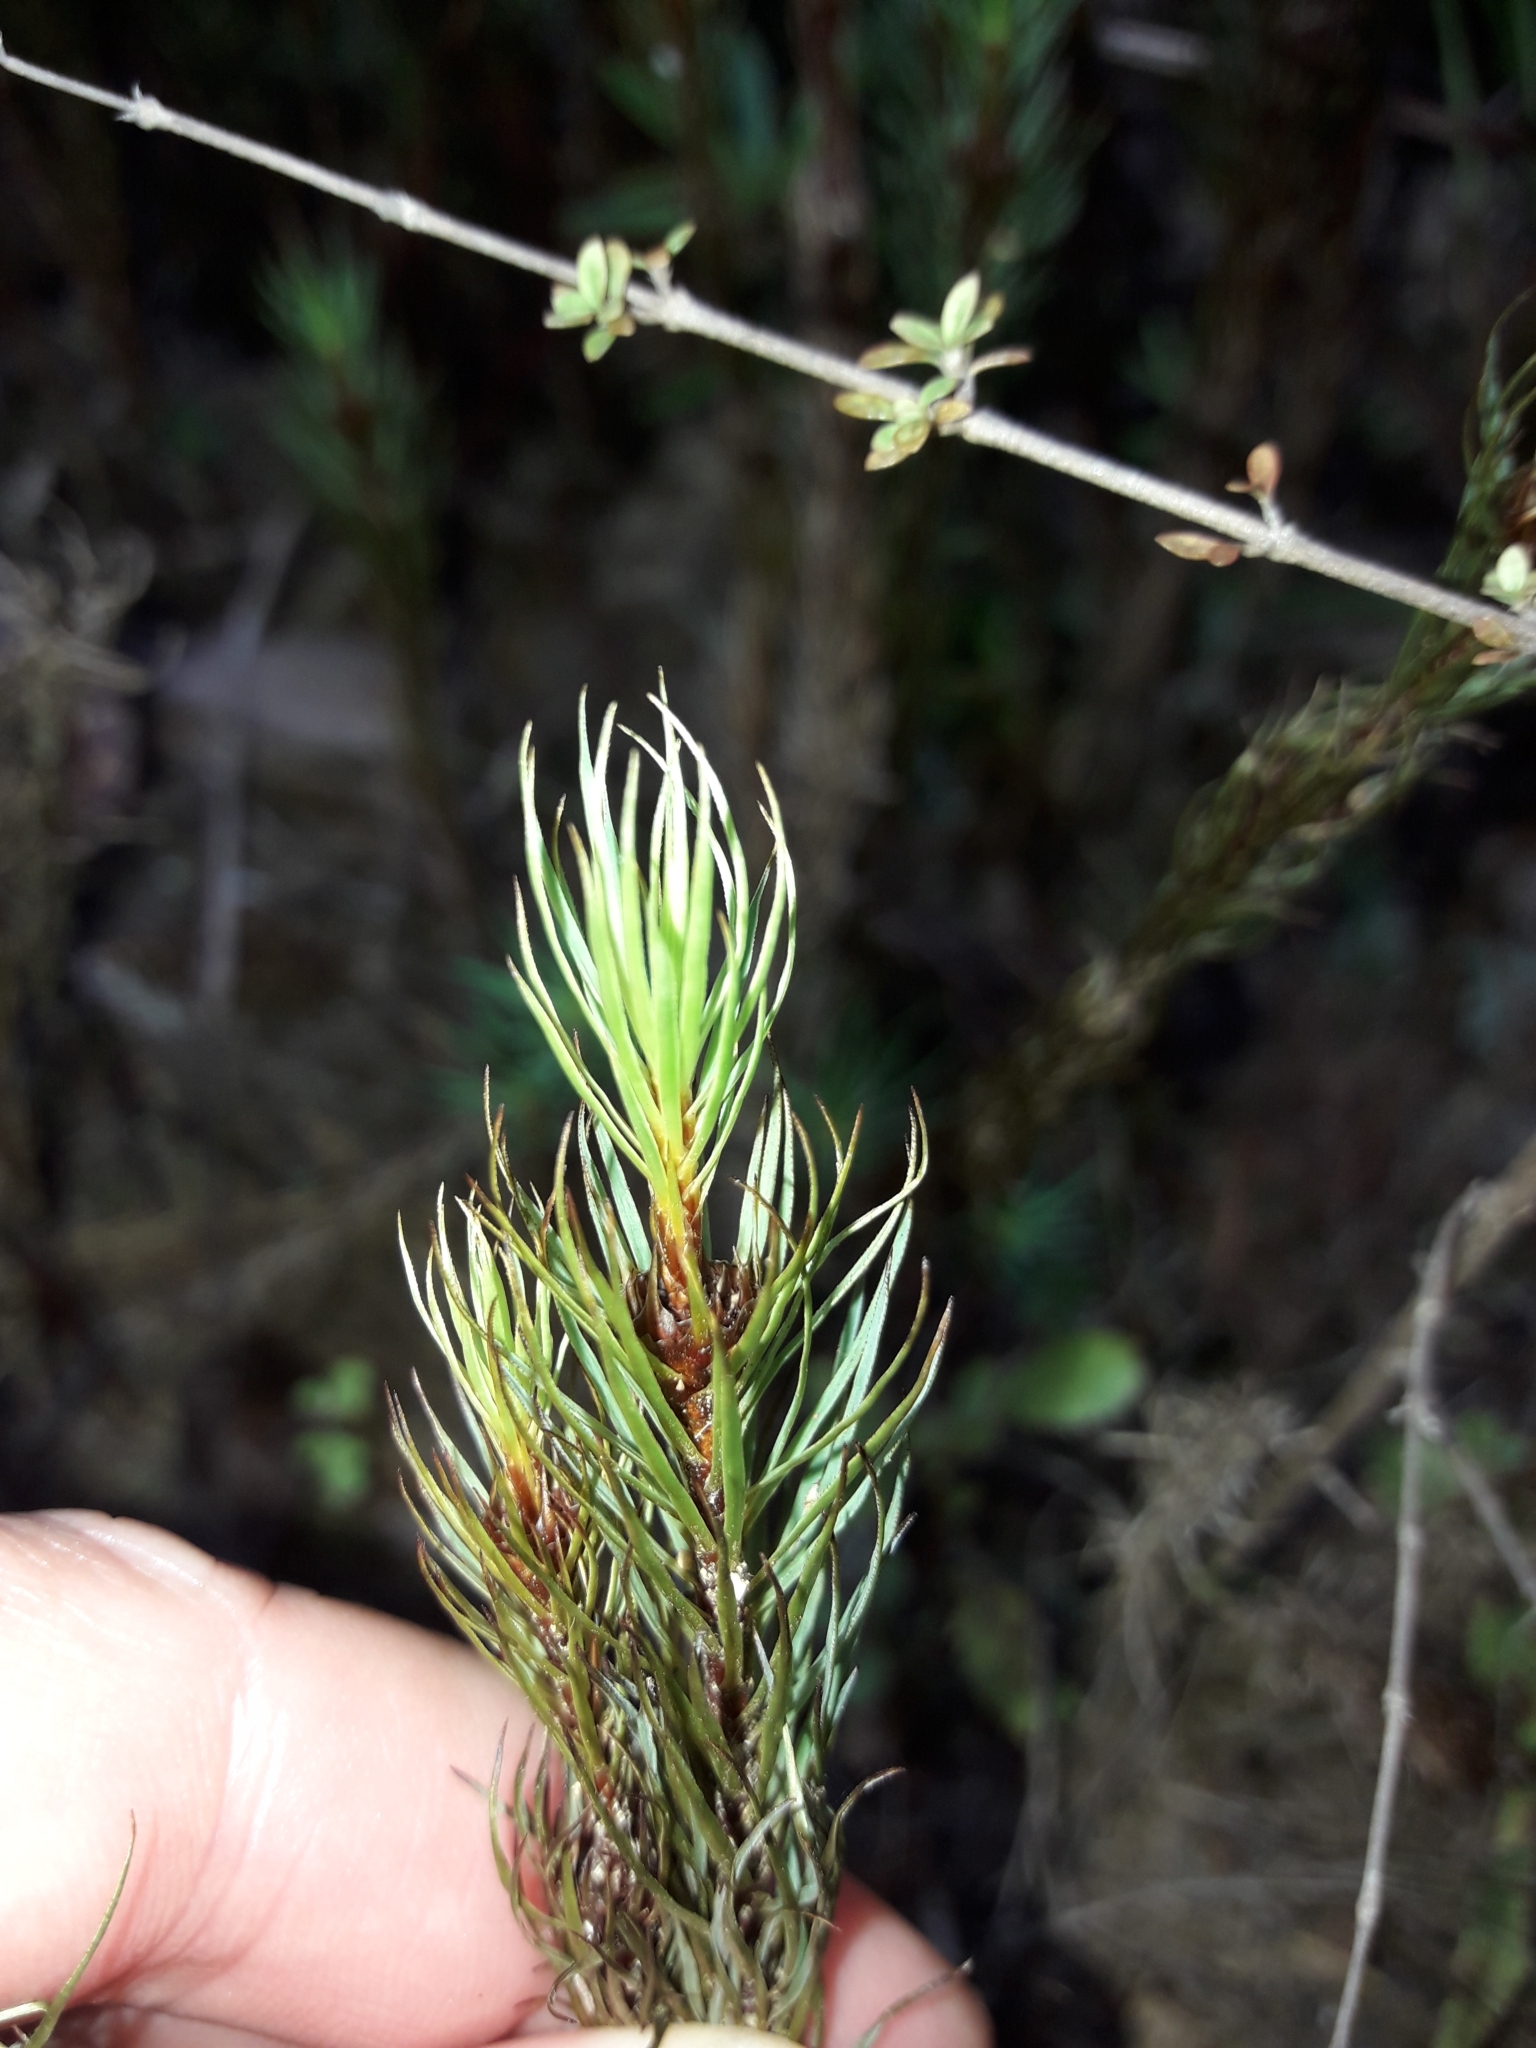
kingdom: Plantae
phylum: Bryophyta
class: Polytrichopsida
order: Polytrichales
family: Polytrichaceae
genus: Dawsonia
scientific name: Dawsonia superba
